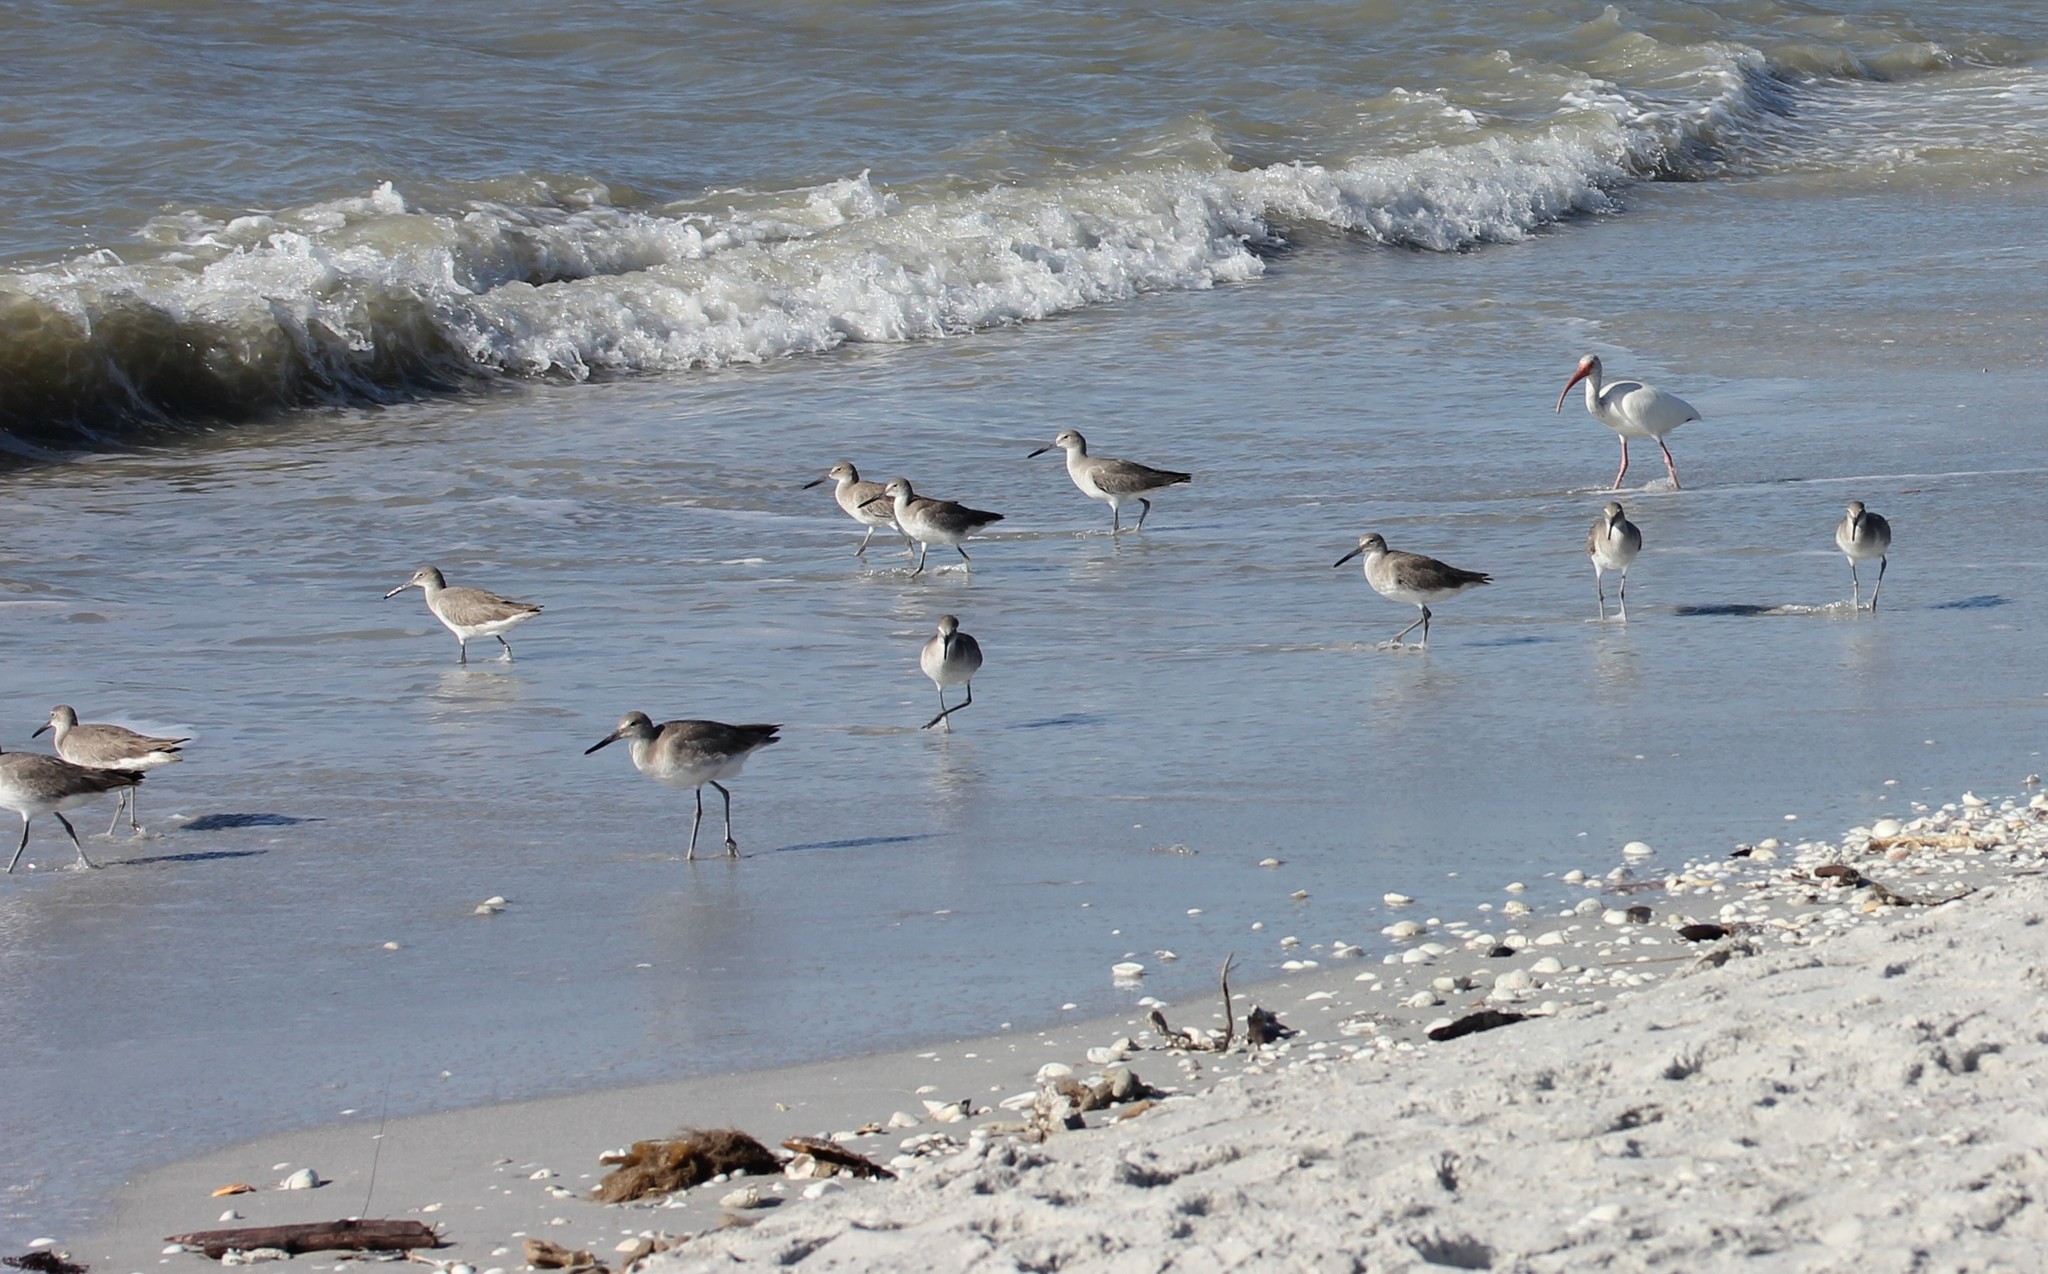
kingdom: Animalia
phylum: Chordata
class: Aves
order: Charadriiformes
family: Scolopacidae
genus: Tringa
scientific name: Tringa semipalmata
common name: Willet
